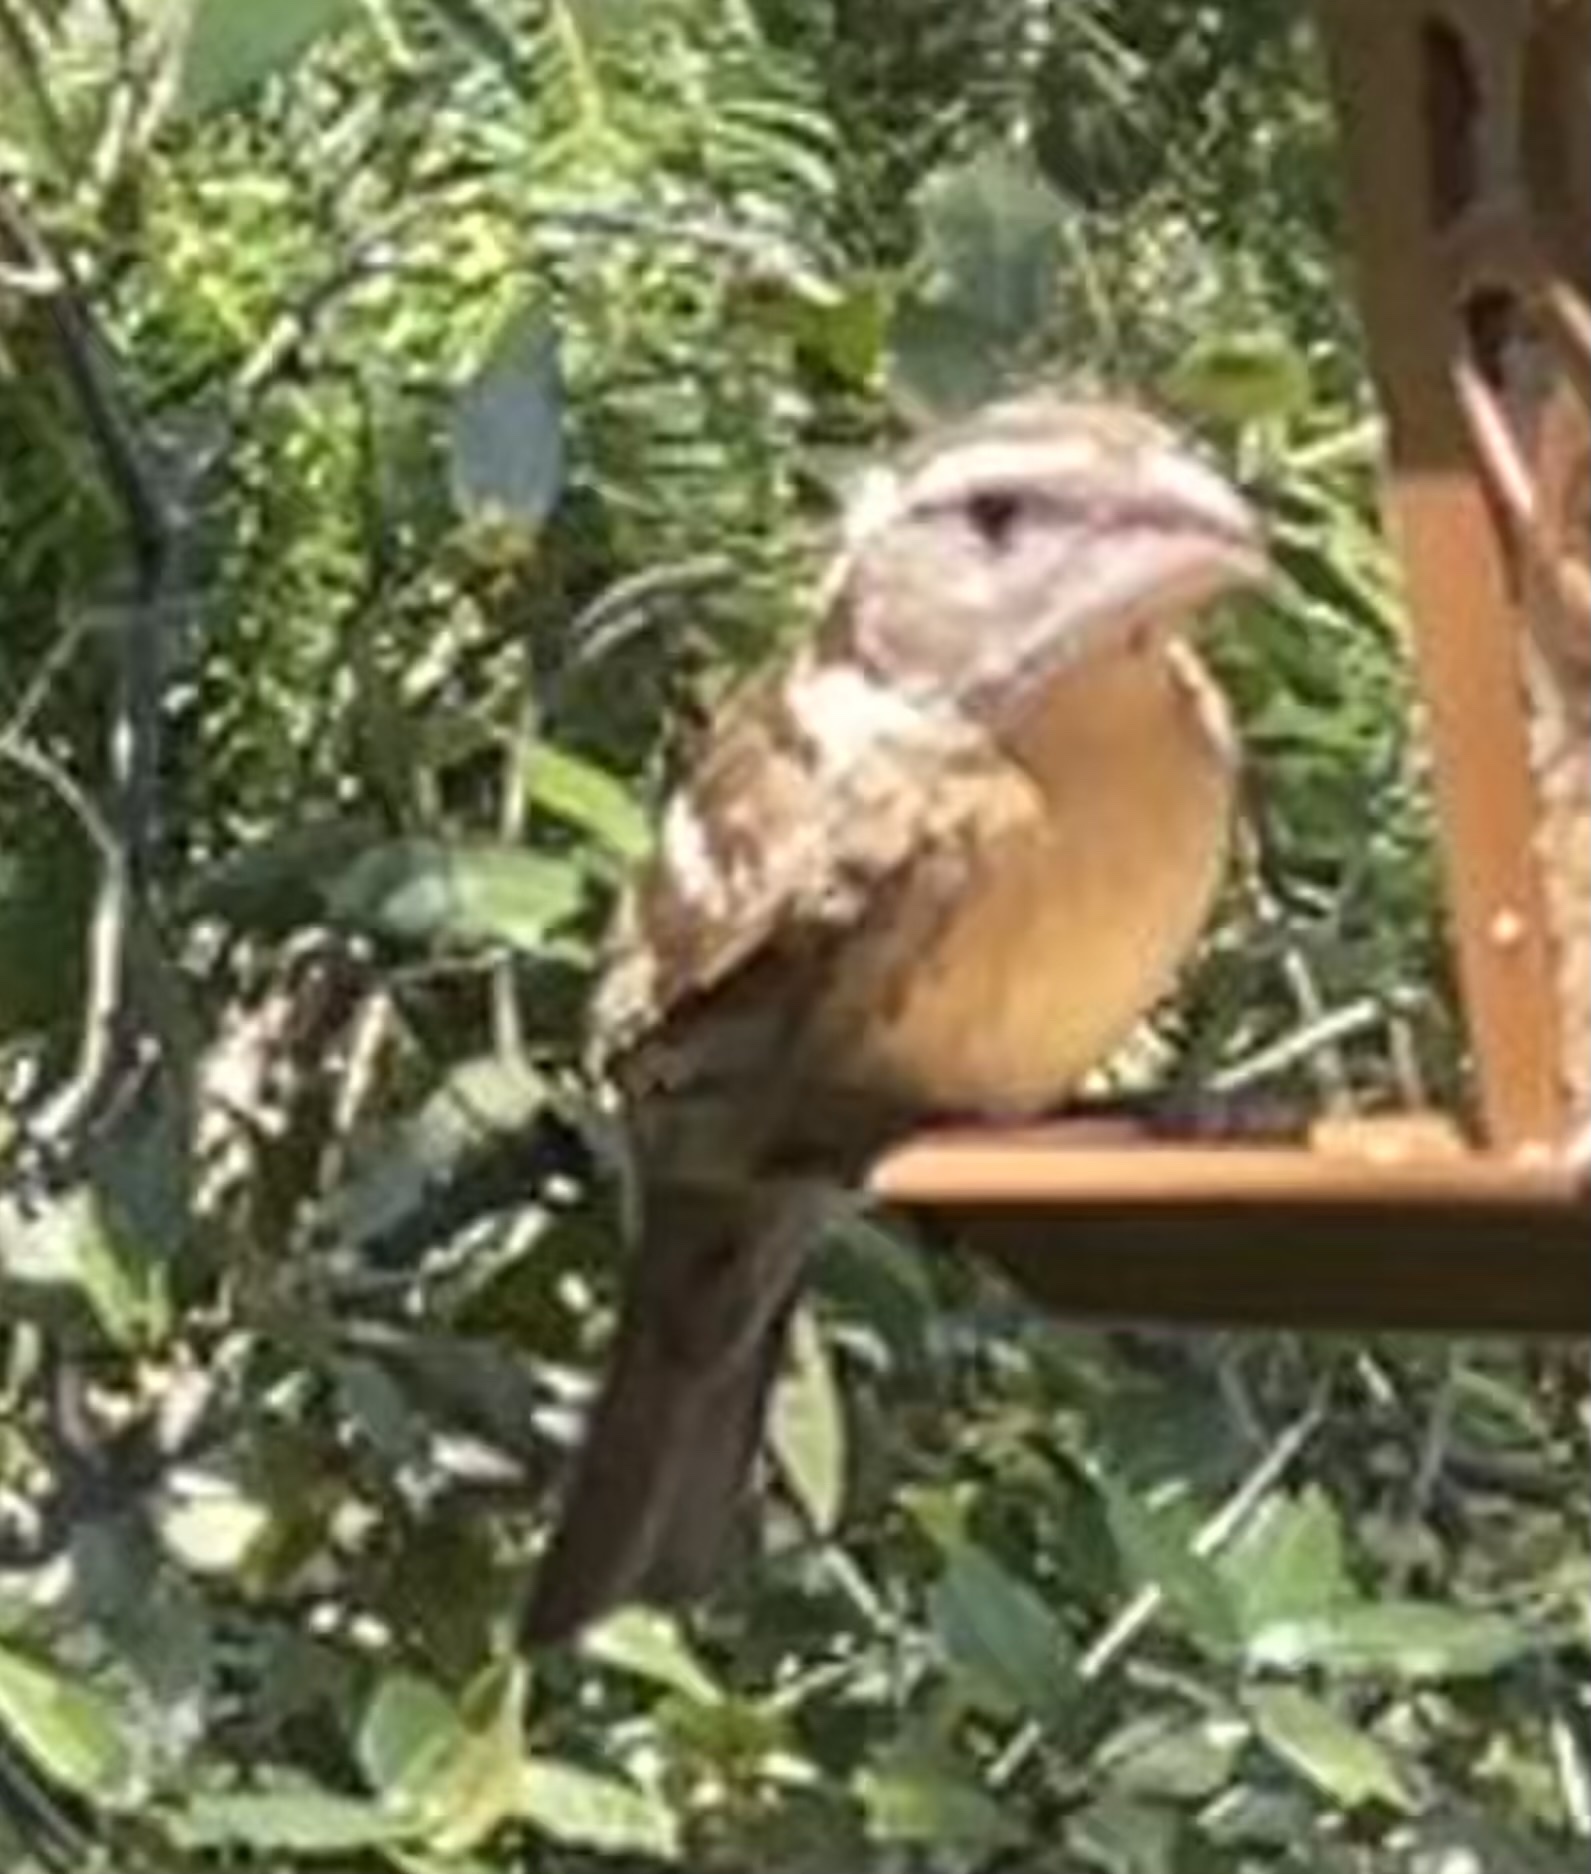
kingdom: Animalia
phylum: Chordata
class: Aves
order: Passeriformes
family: Cardinalidae
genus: Pheucticus
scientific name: Pheucticus melanocephalus
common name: Black-headed grosbeak
